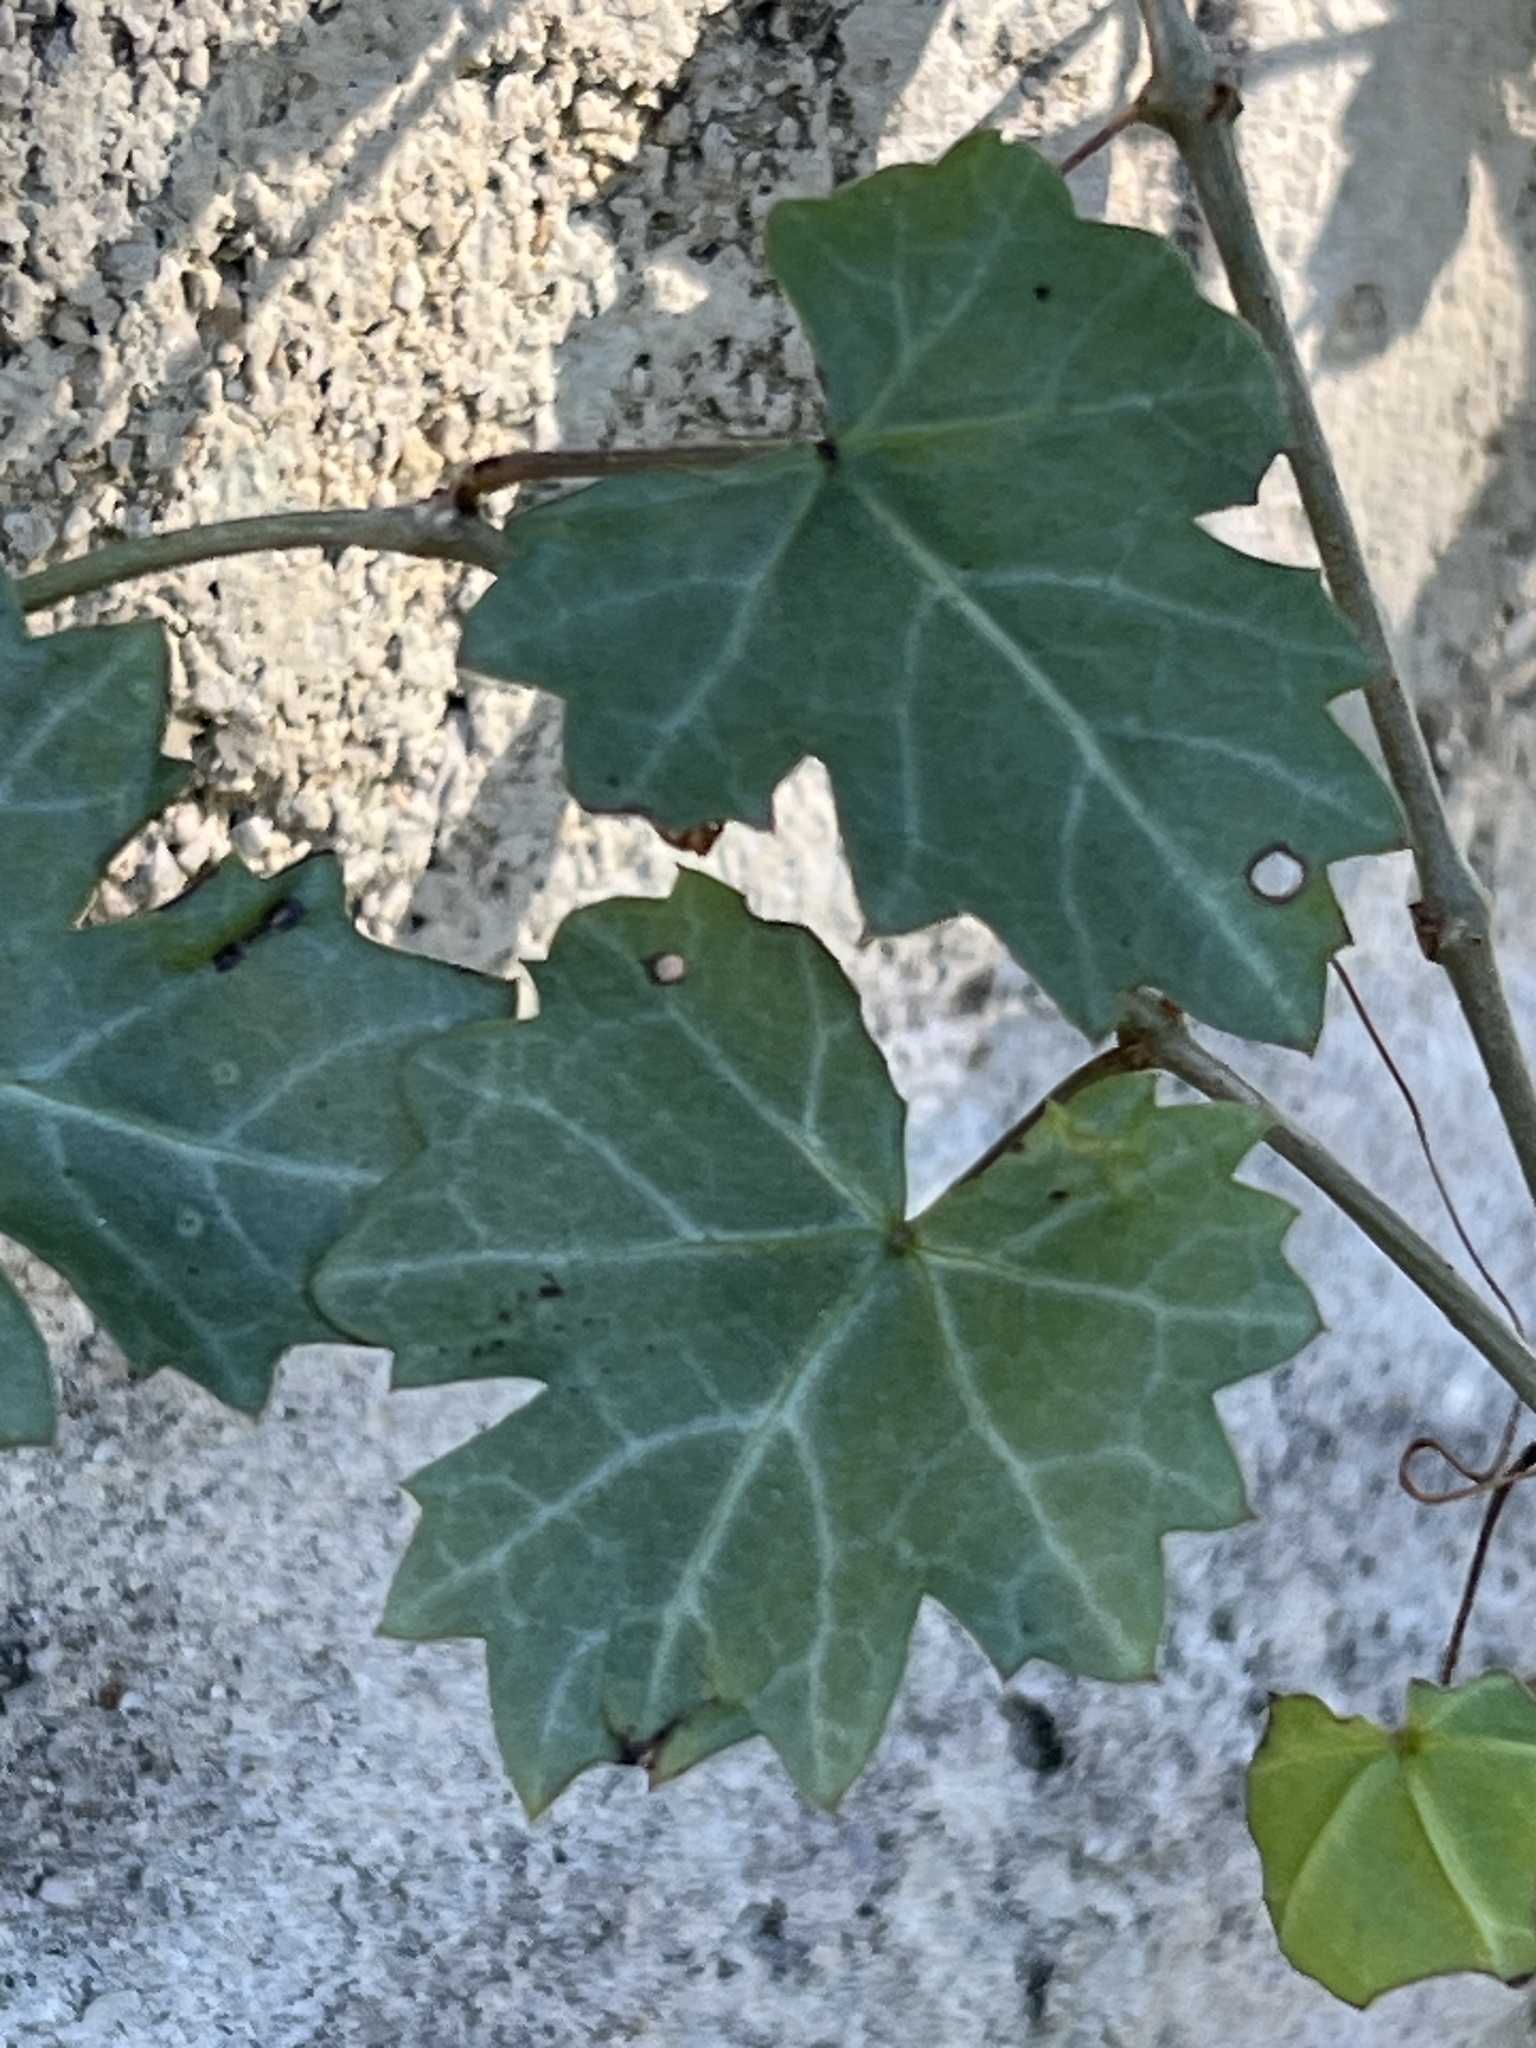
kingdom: Plantae
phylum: Tracheophyta
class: Magnoliopsida
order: Vitales
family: Vitaceae
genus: Cissus
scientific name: Cissus trifoliata
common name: Vine-sorrel
